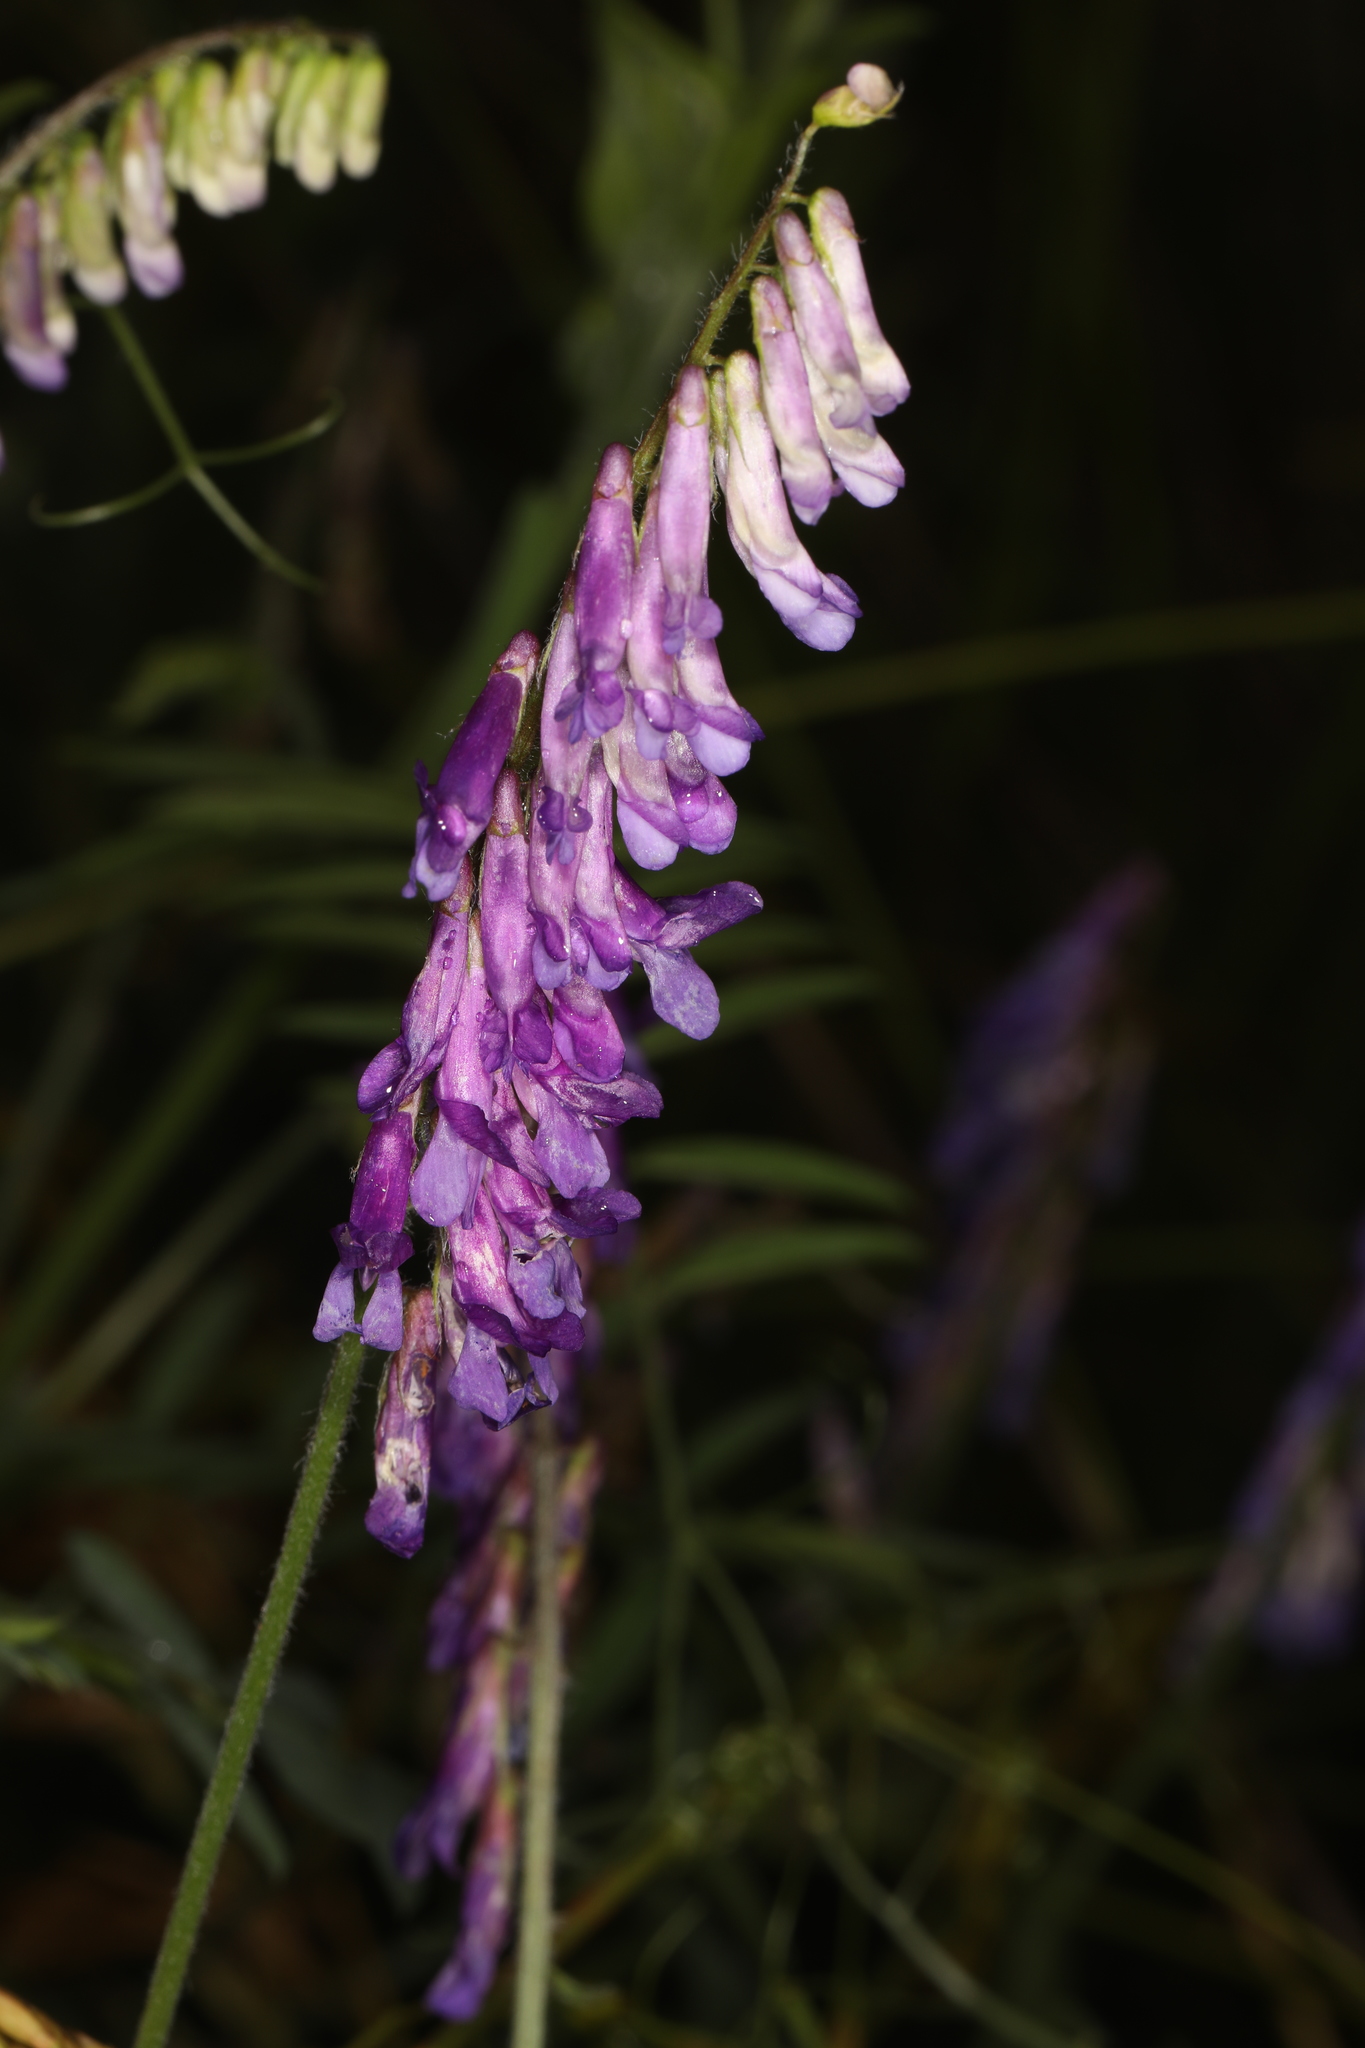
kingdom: Plantae
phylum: Tracheophyta
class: Magnoliopsida
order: Fabales
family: Fabaceae
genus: Vicia
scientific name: Vicia villosa
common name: Fodder vetch
